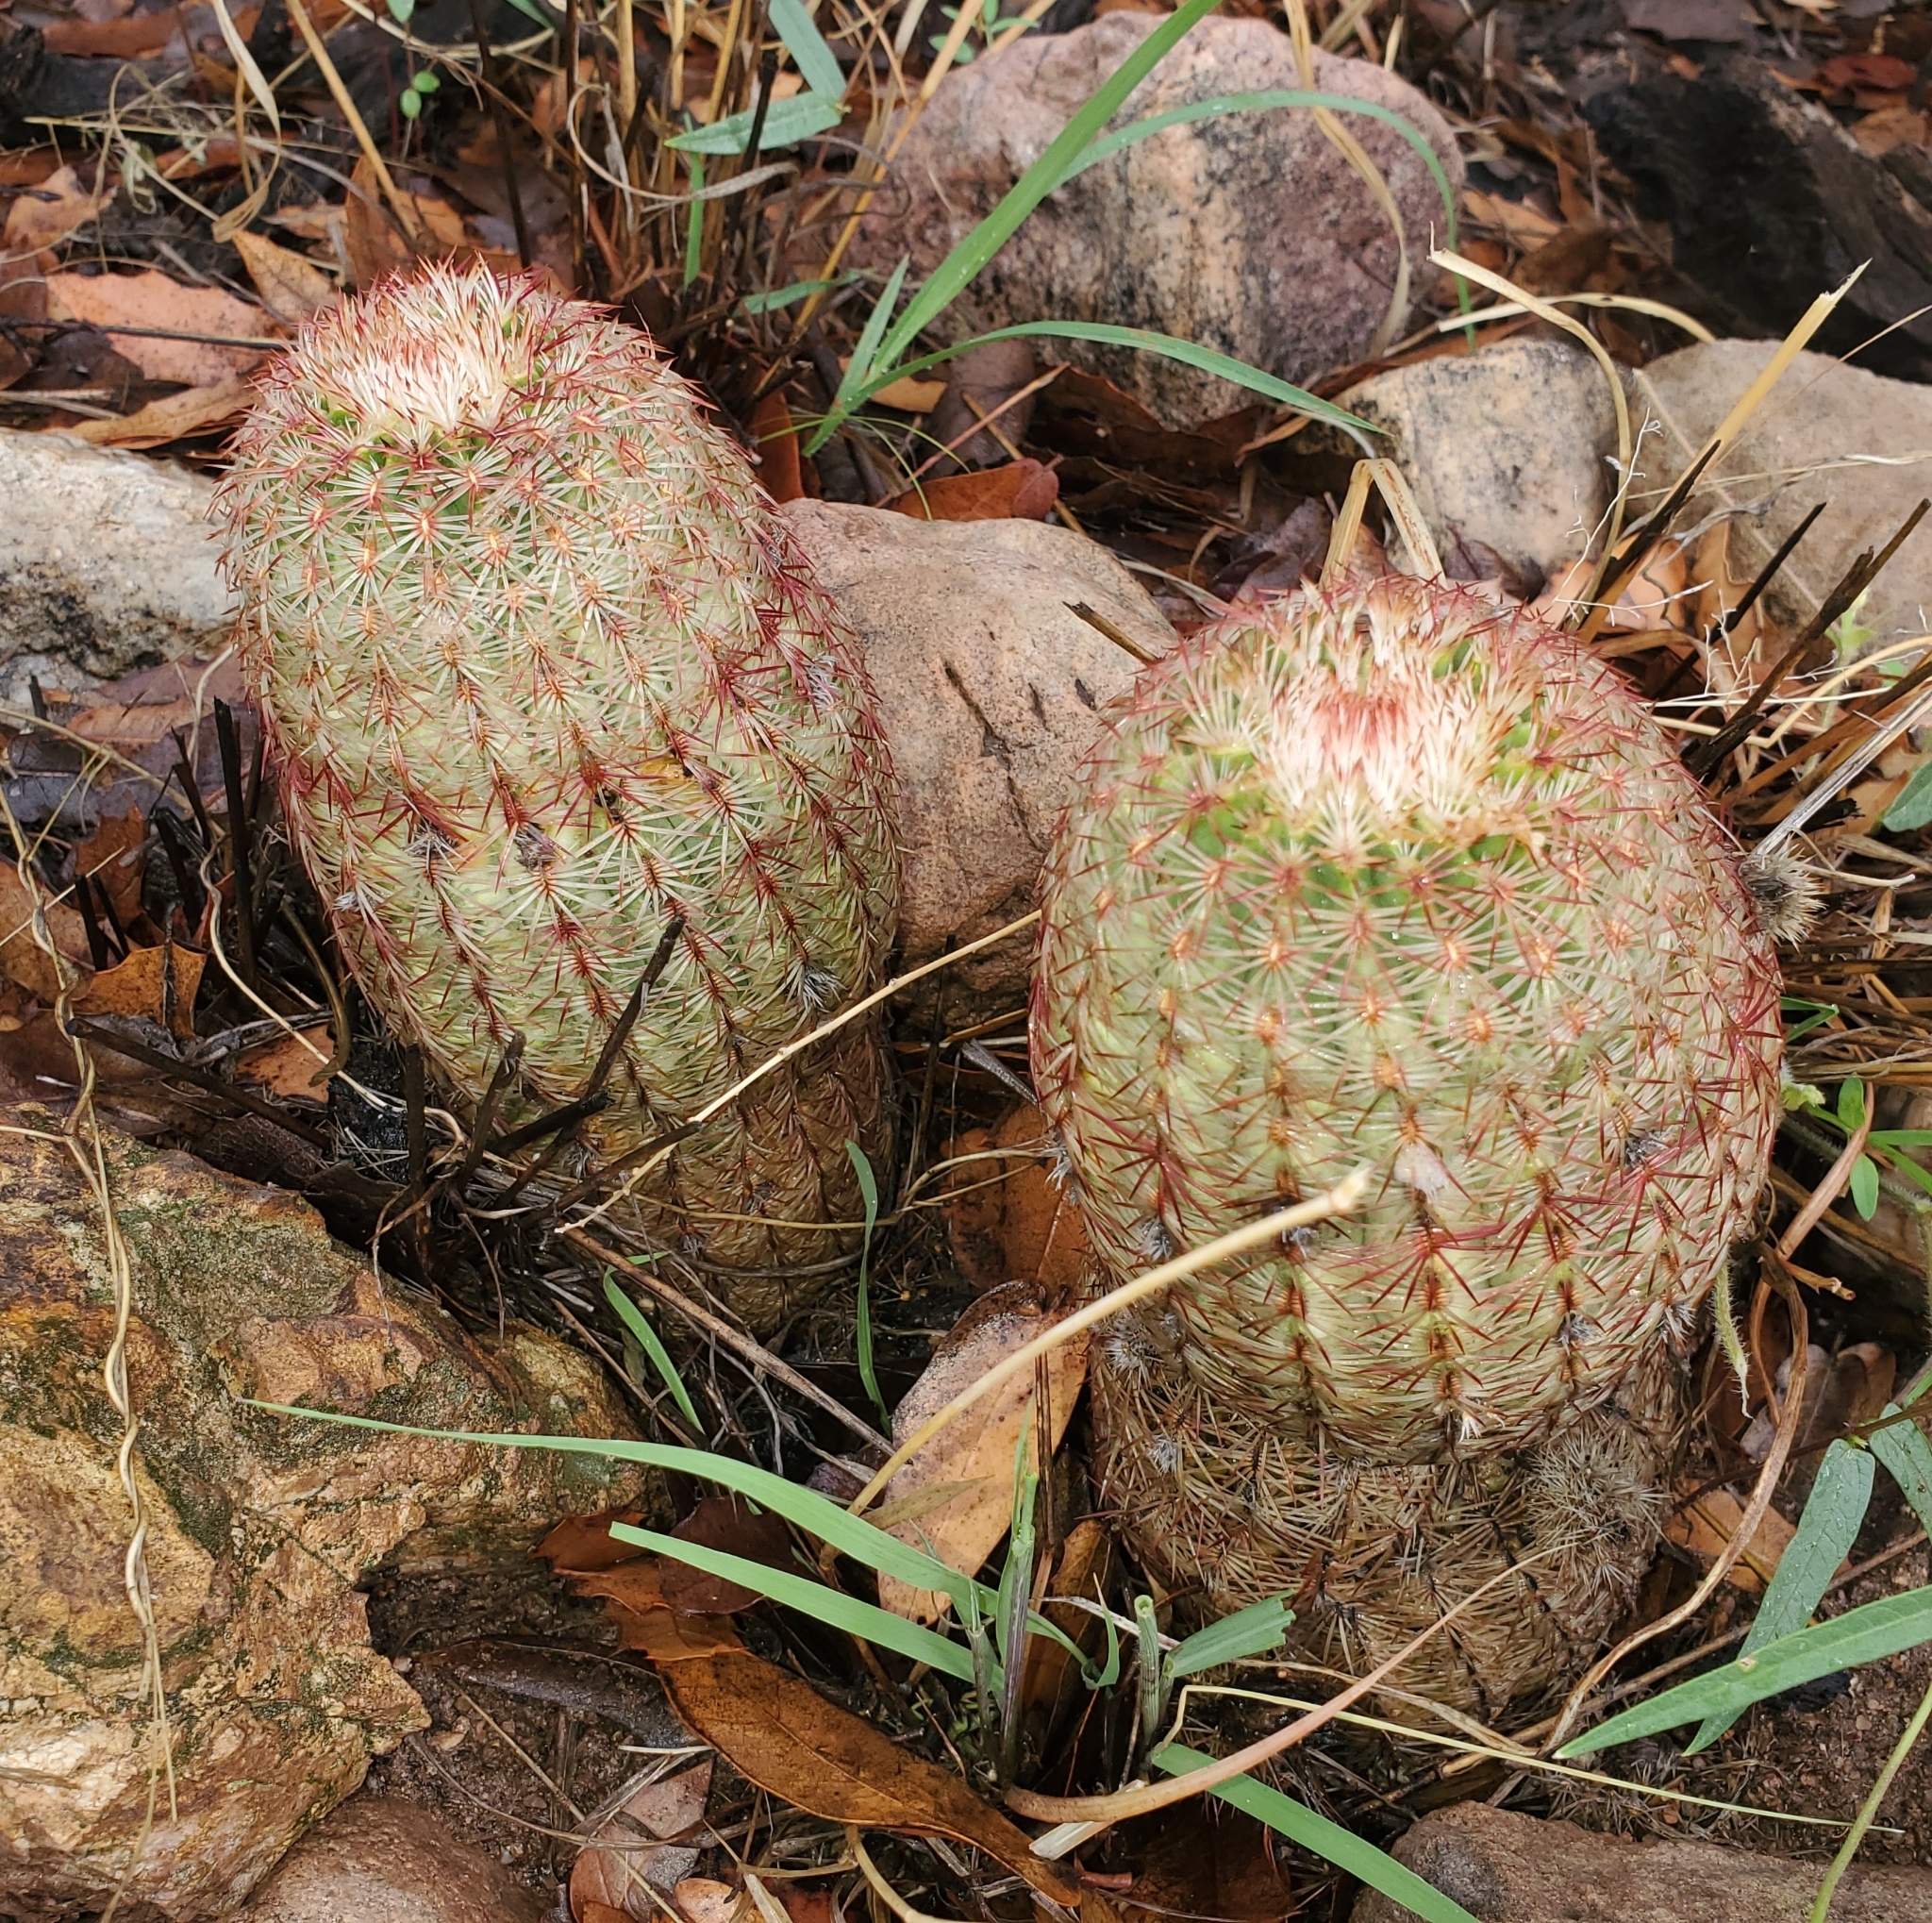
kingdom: Plantae
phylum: Tracheophyta
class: Magnoliopsida
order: Caryophyllales
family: Cactaceae
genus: Echinocereus
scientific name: Echinocereus rigidissimus
